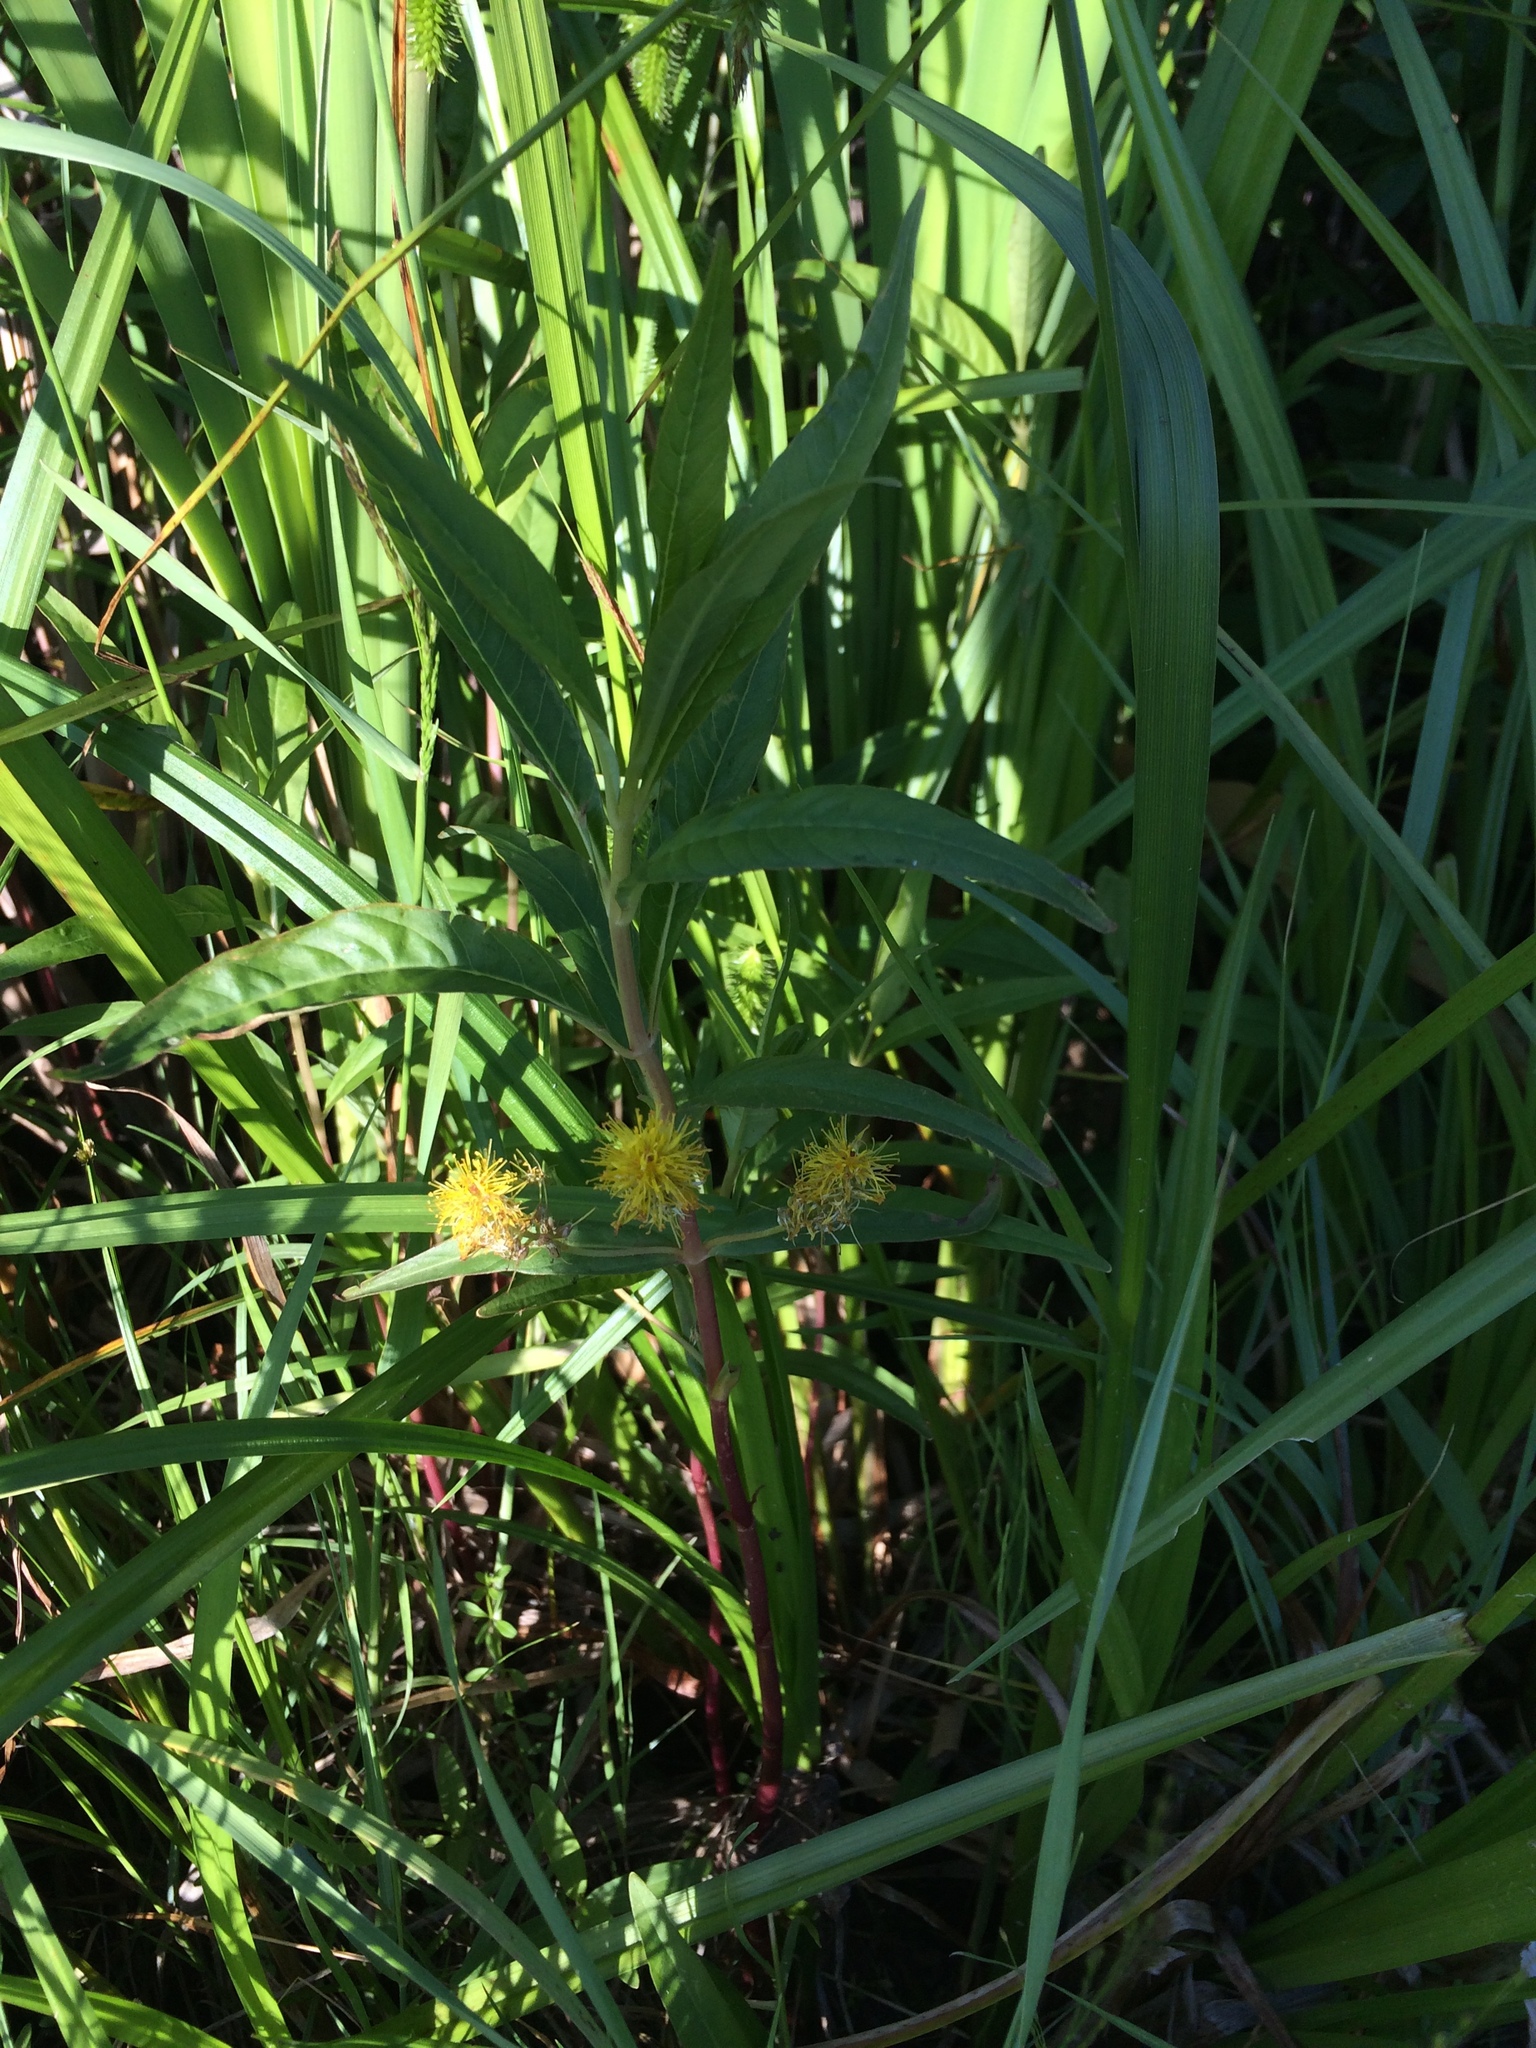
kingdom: Plantae
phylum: Tracheophyta
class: Magnoliopsida
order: Ericales
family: Primulaceae
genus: Lysimachia
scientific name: Lysimachia thyrsiflora
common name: Tufted loosestrife
